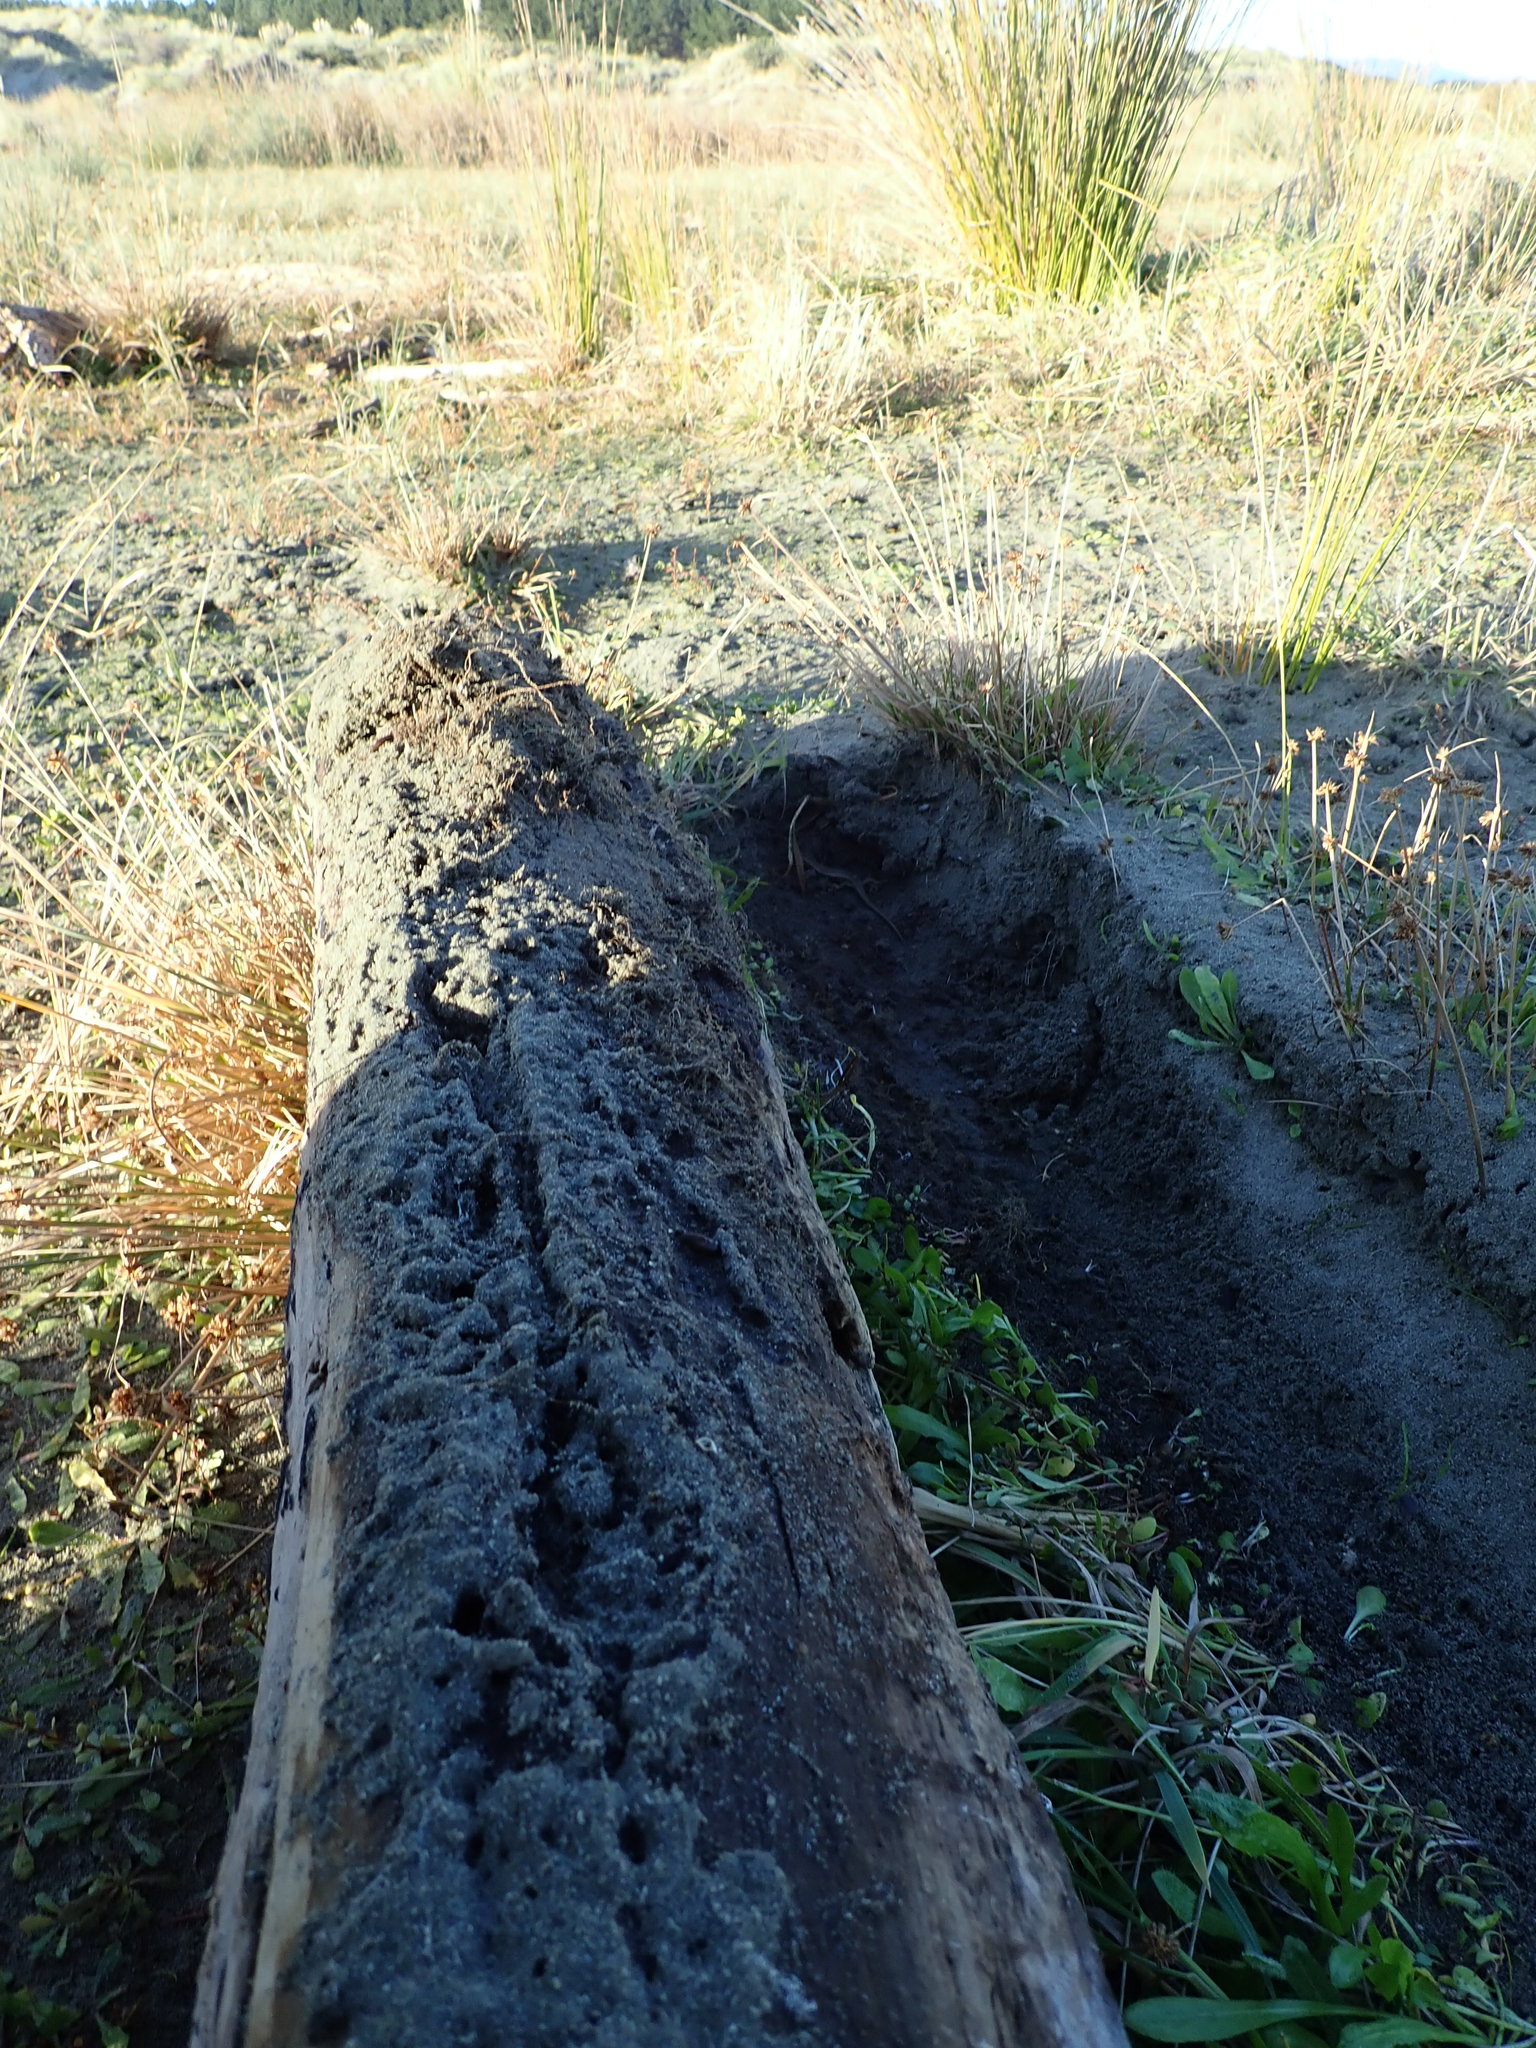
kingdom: Animalia
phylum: Chordata
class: Squamata
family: Scincidae
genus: Oligosoma
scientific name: Oligosoma polychroma
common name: Common new zealand skink
